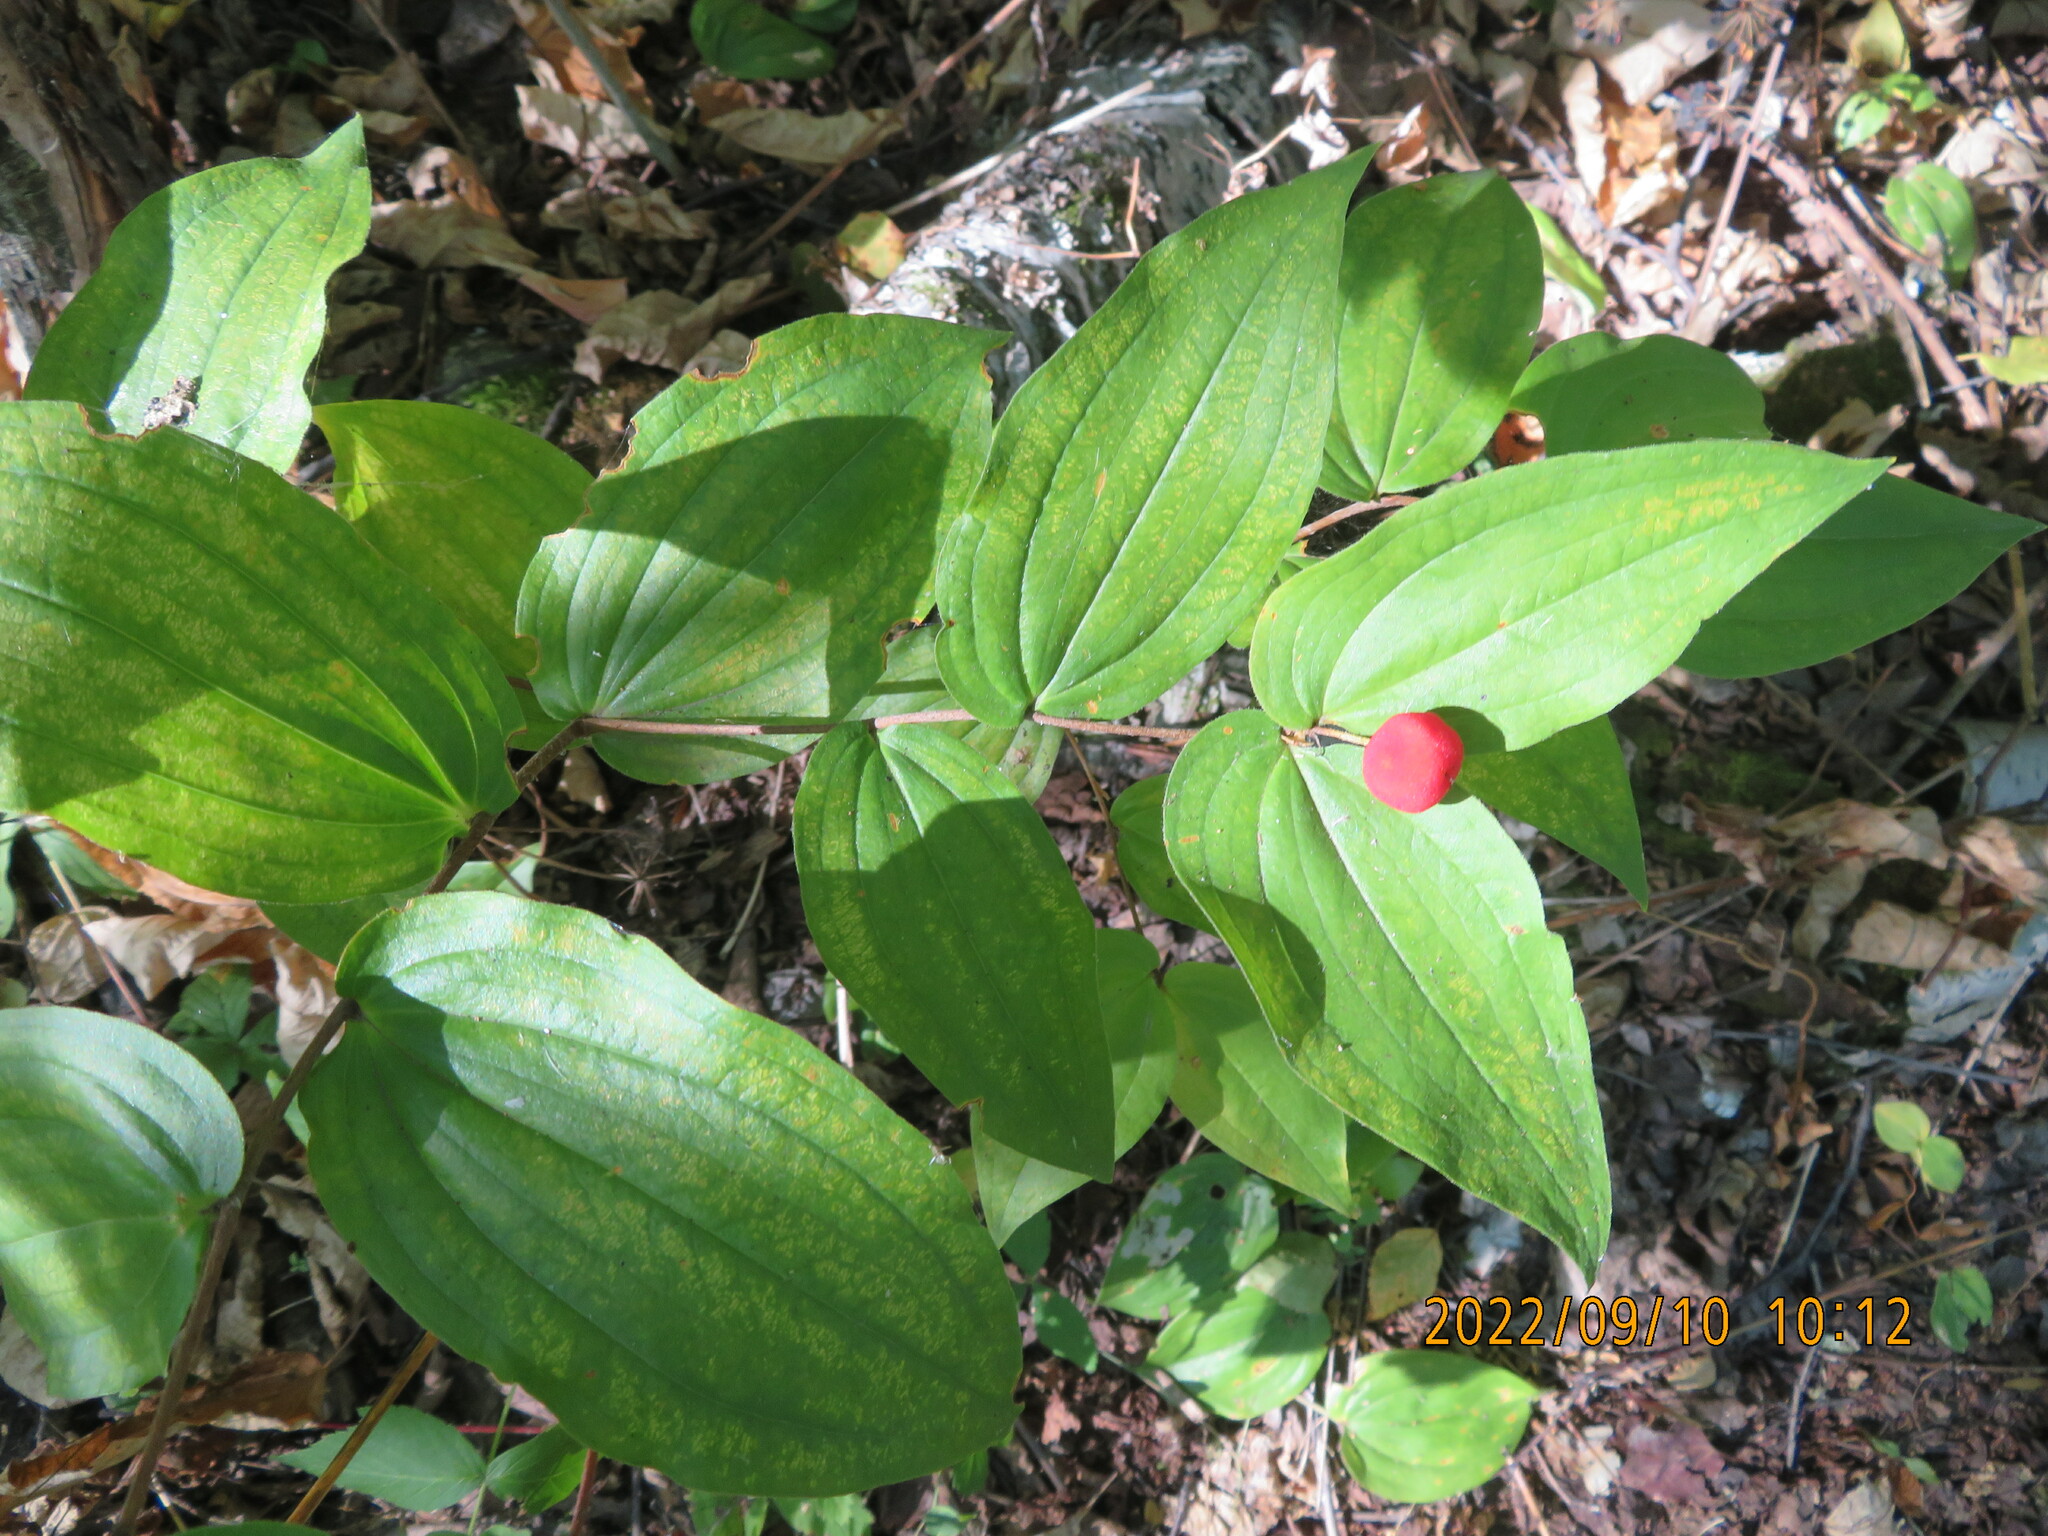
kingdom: Plantae
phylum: Tracheophyta
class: Liliopsida
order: Liliales
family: Liliaceae
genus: Prosartes
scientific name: Prosartes trachycarpa
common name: Rough-fruit fairy-bells
